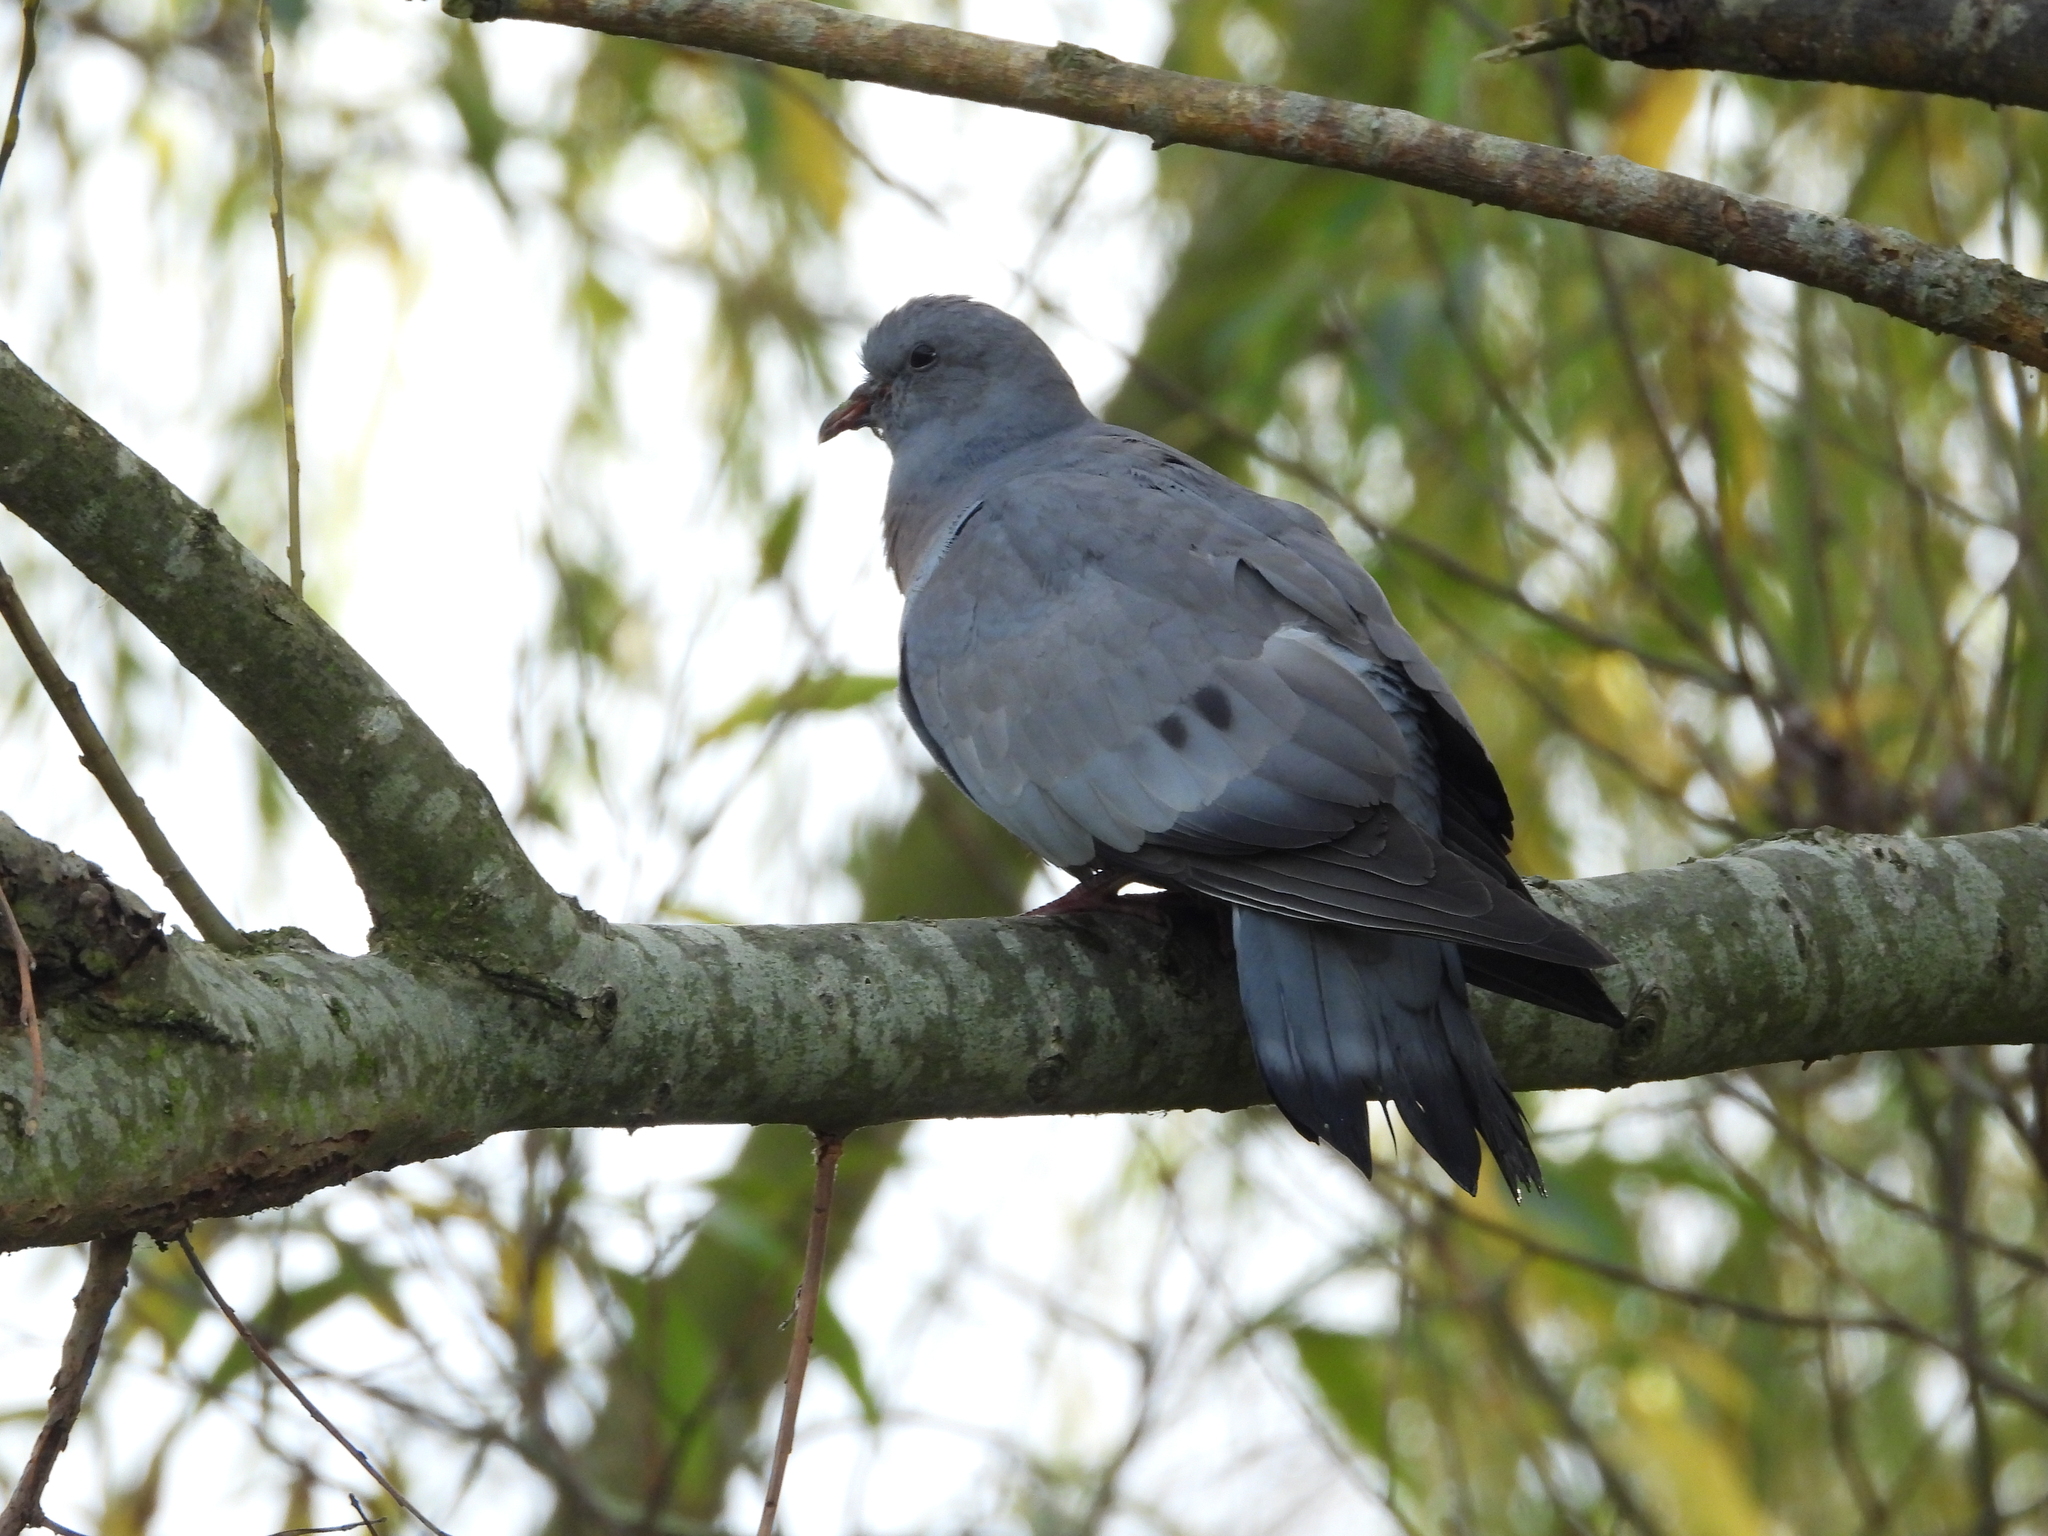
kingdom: Animalia
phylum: Chordata
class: Aves
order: Columbiformes
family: Columbidae
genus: Columba
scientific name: Columba oenas
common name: Stock dove
